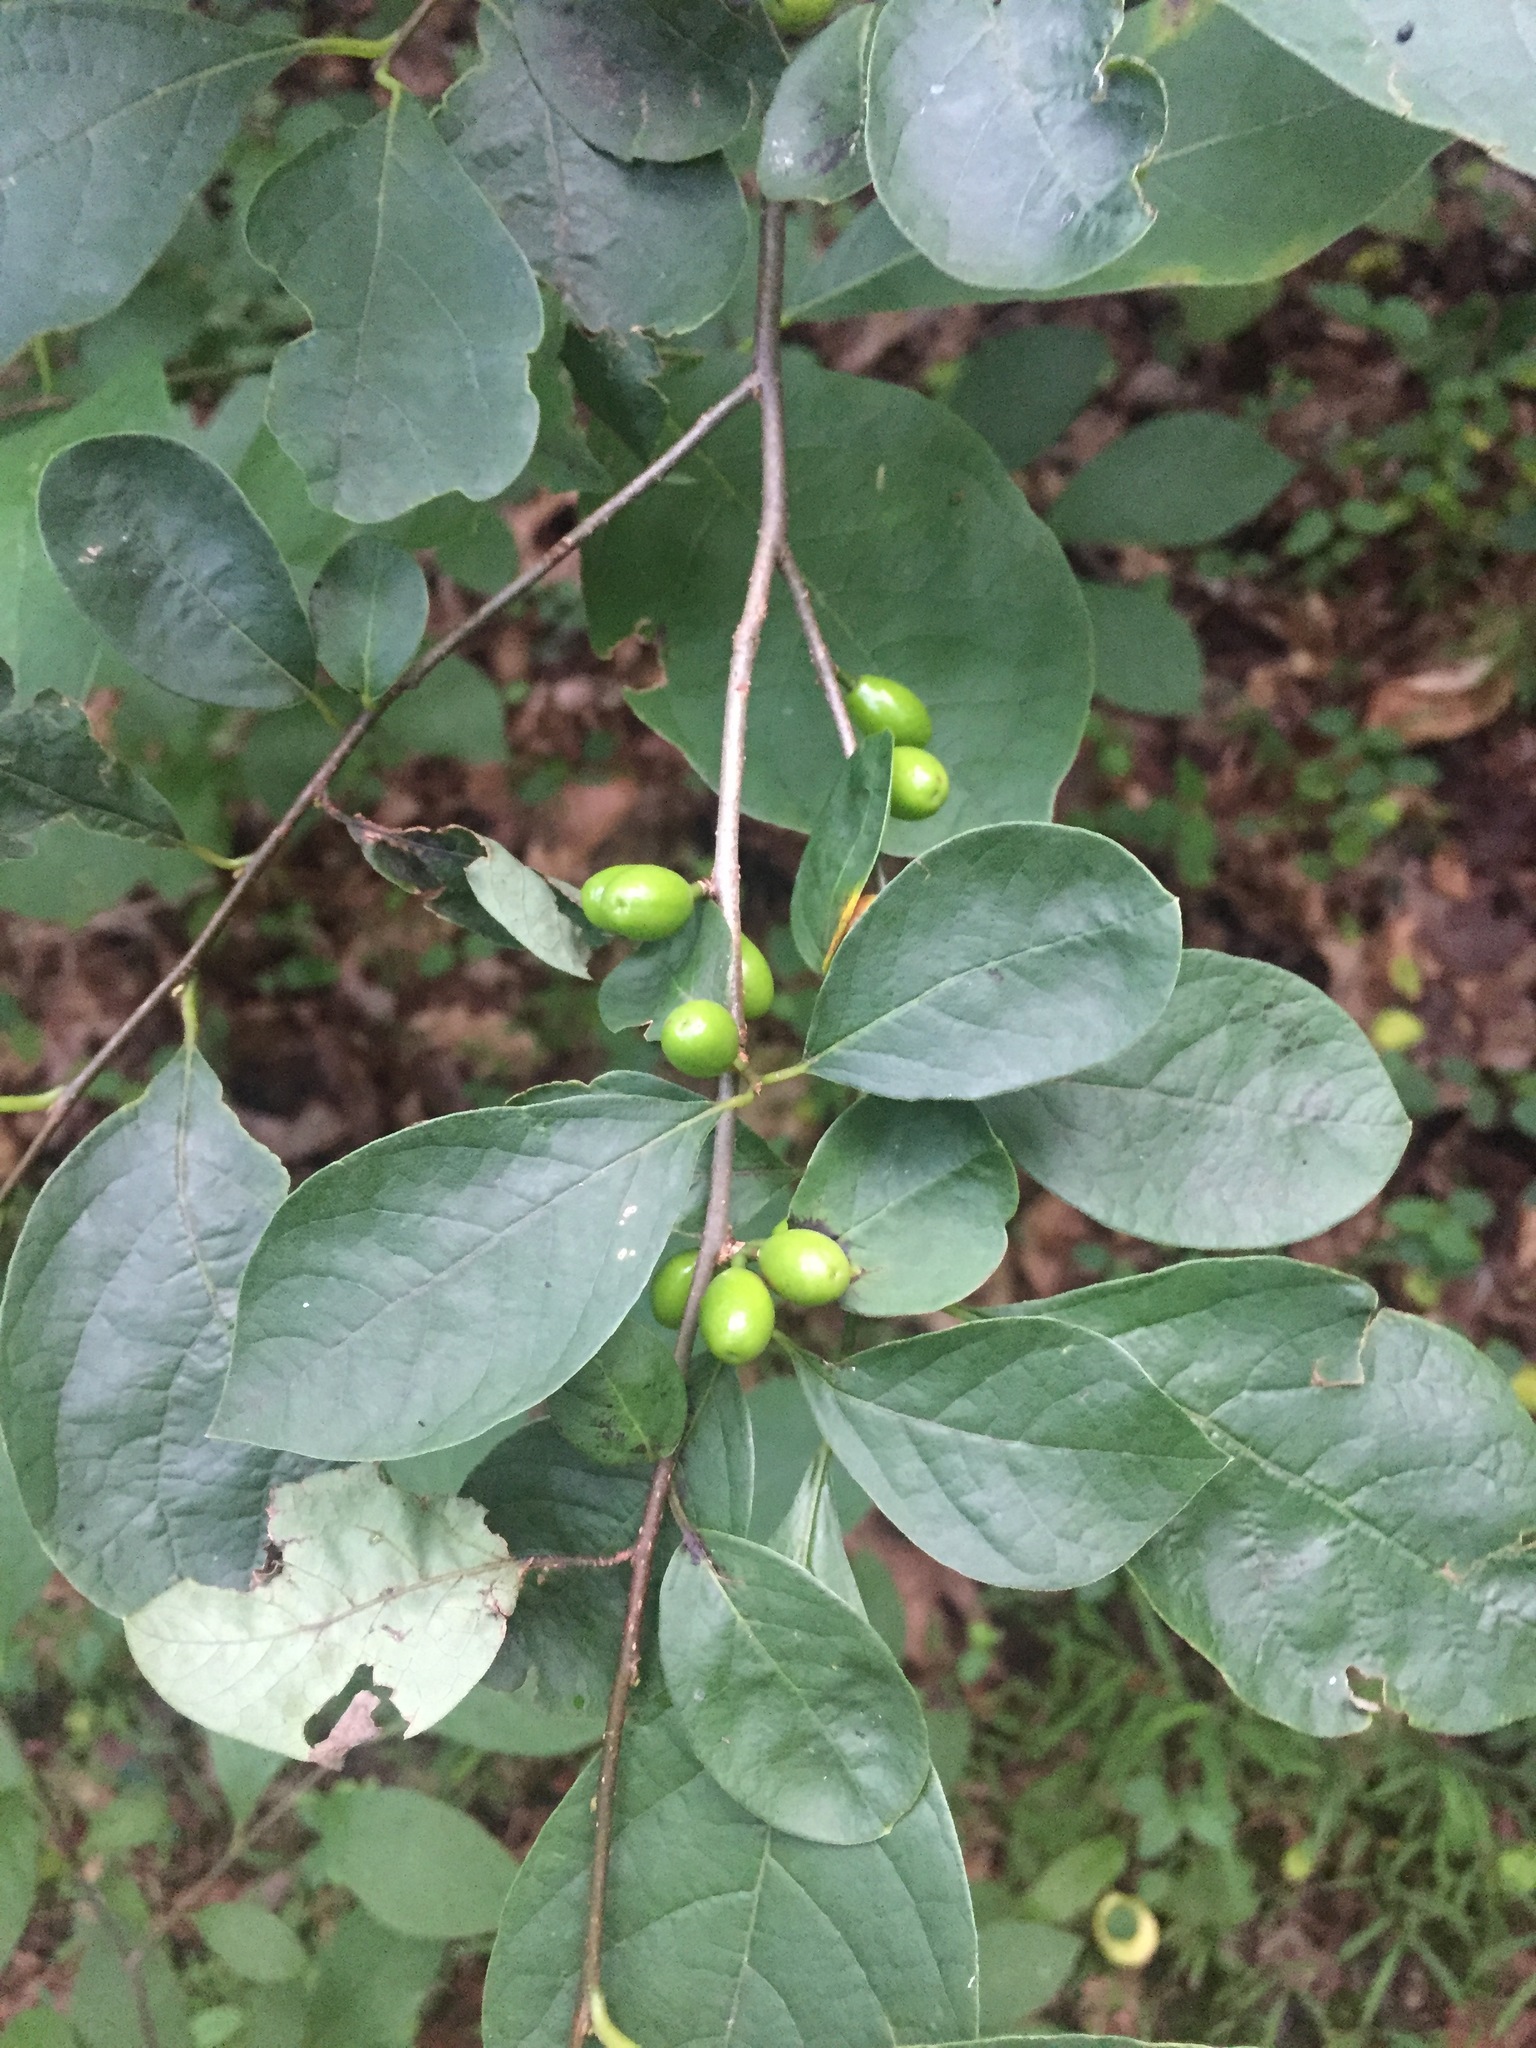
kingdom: Plantae
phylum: Tracheophyta
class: Magnoliopsida
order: Laurales
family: Lauraceae
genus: Lindera
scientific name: Lindera benzoin
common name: Spicebush
